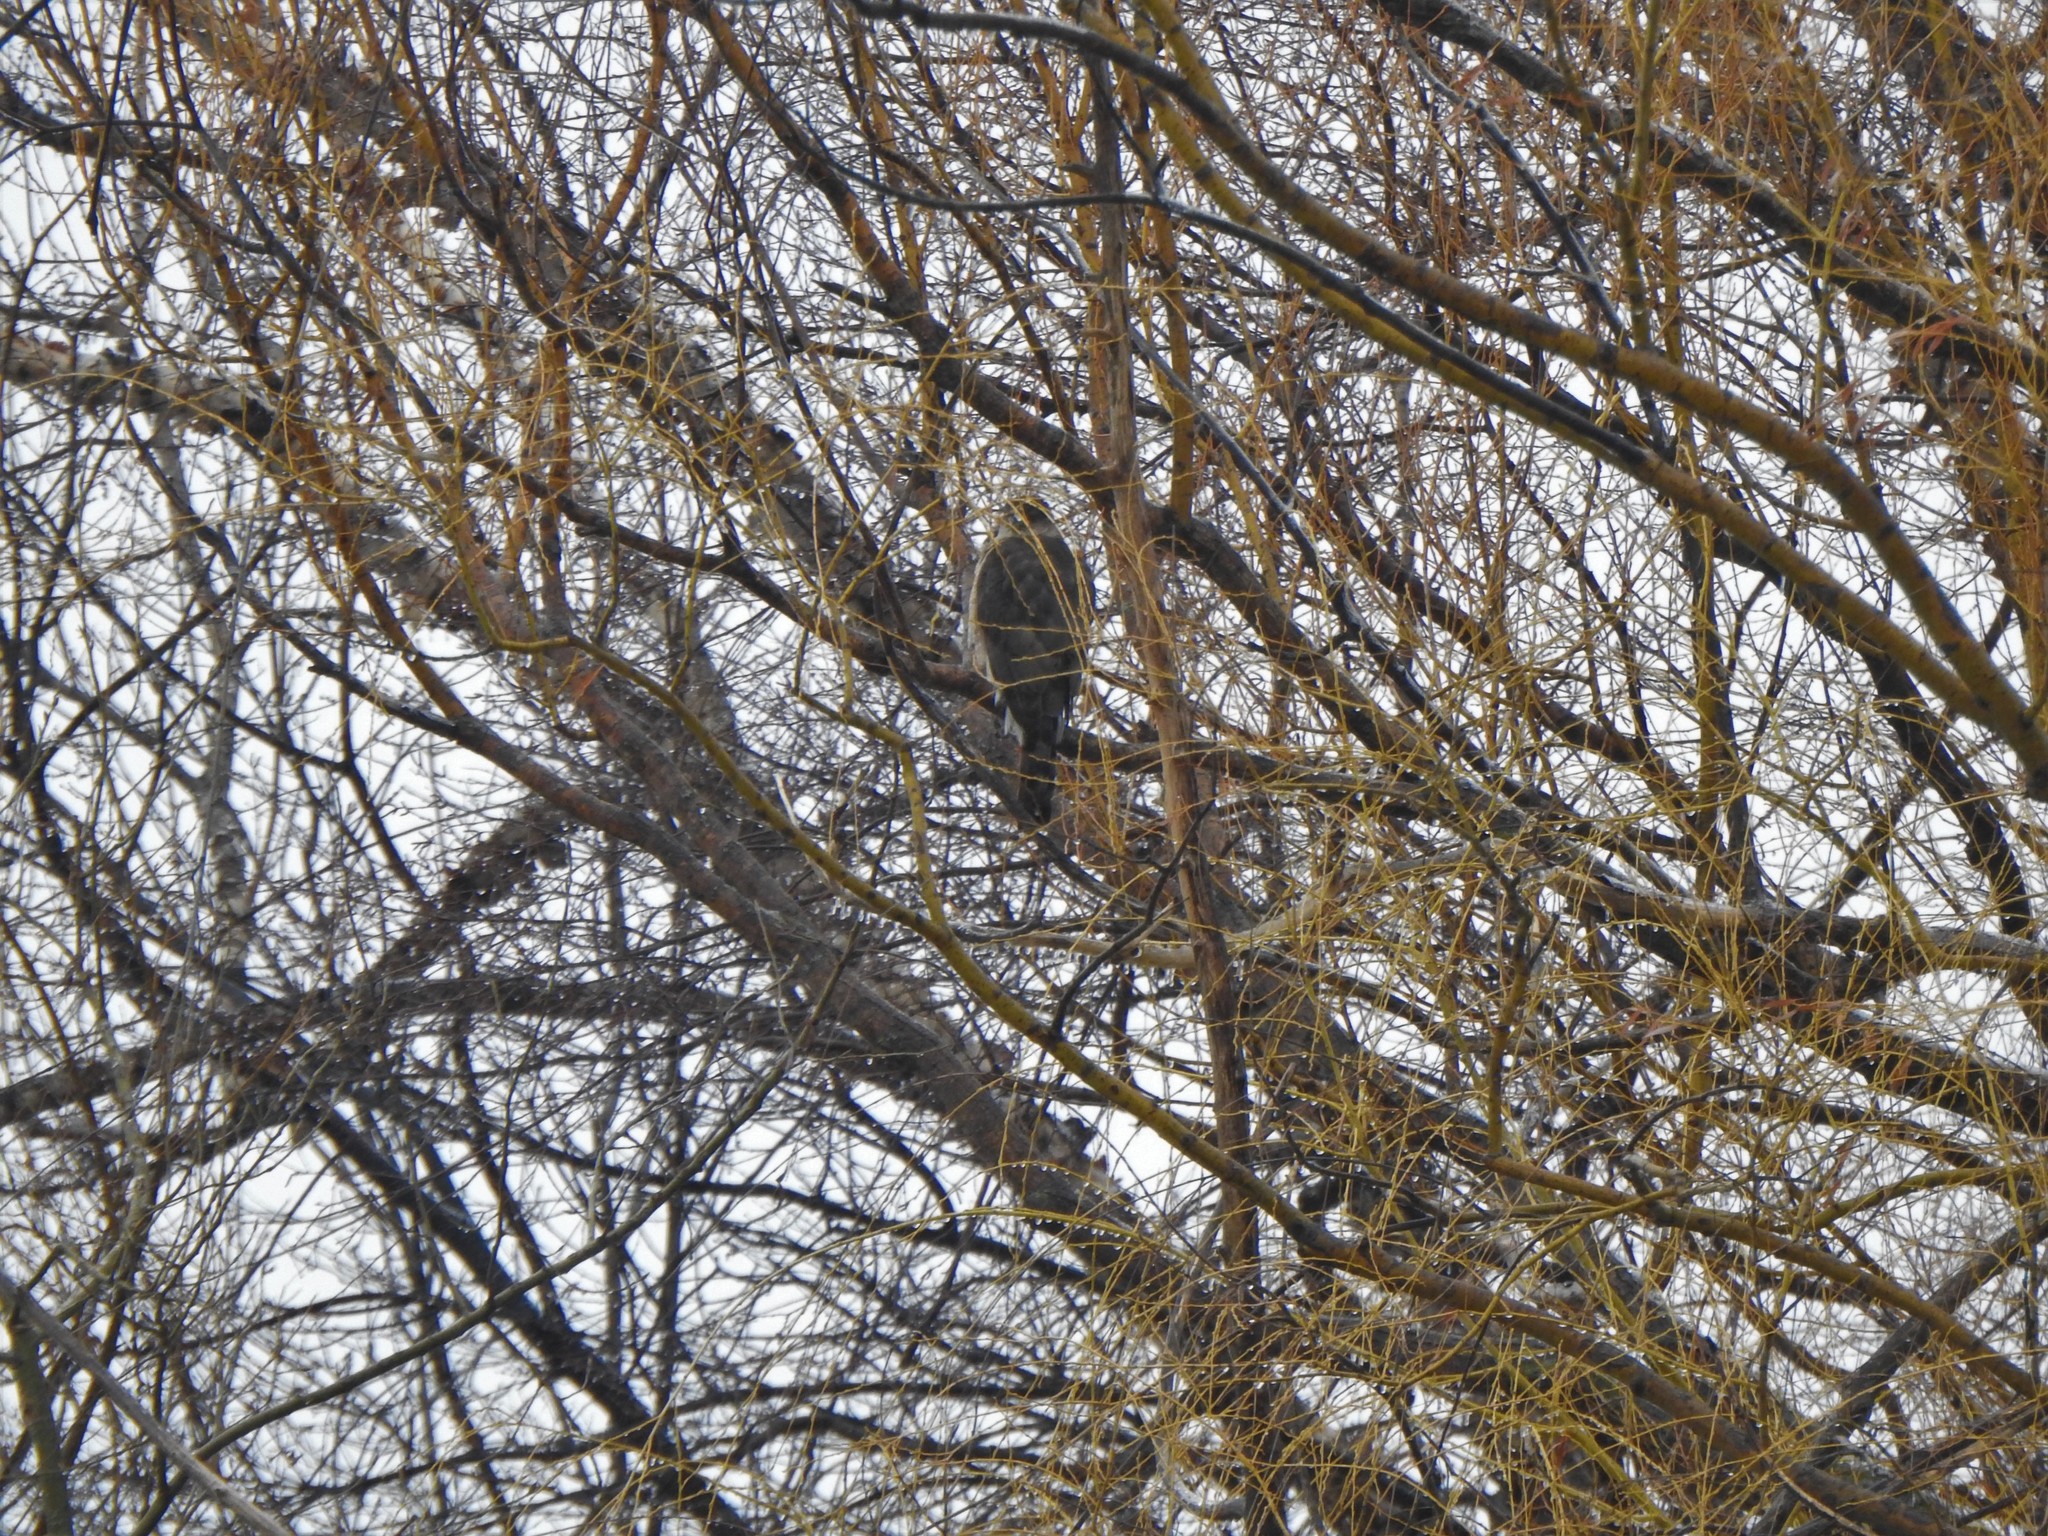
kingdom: Animalia
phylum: Chordata
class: Aves
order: Accipitriformes
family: Accipitridae
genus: Accipiter
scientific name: Accipiter cooperii
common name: Cooper's hawk
